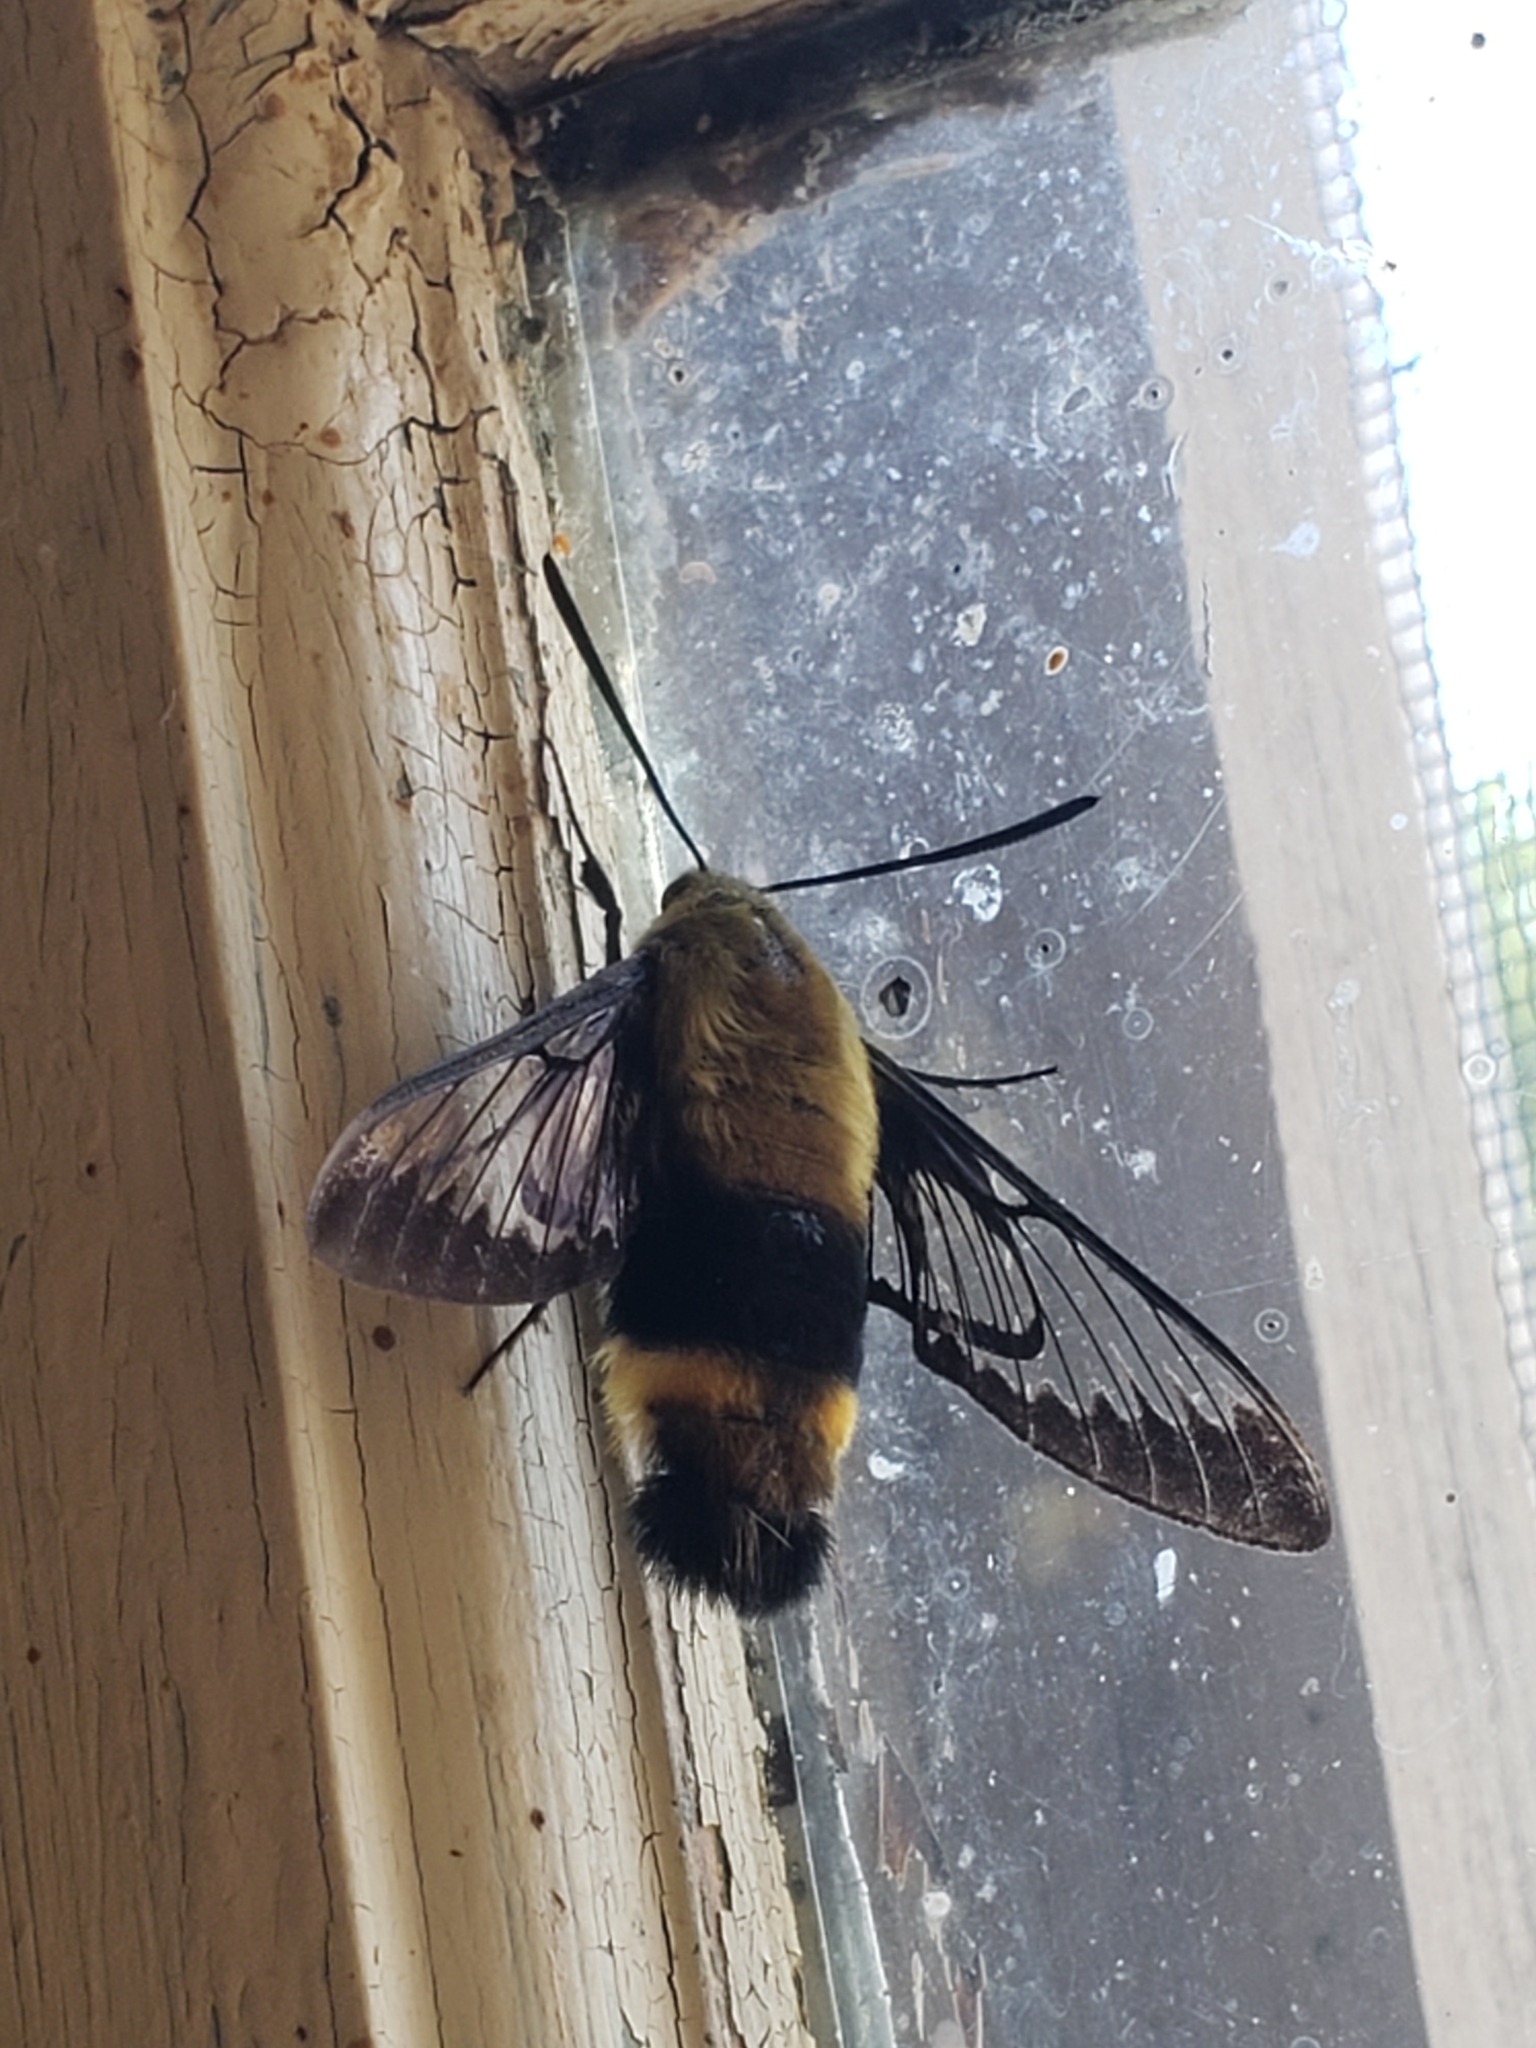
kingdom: Animalia
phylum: Arthropoda
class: Insecta
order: Lepidoptera
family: Sphingidae
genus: Hemaris
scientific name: Hemaris diffinis
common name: Bumblebee moth
